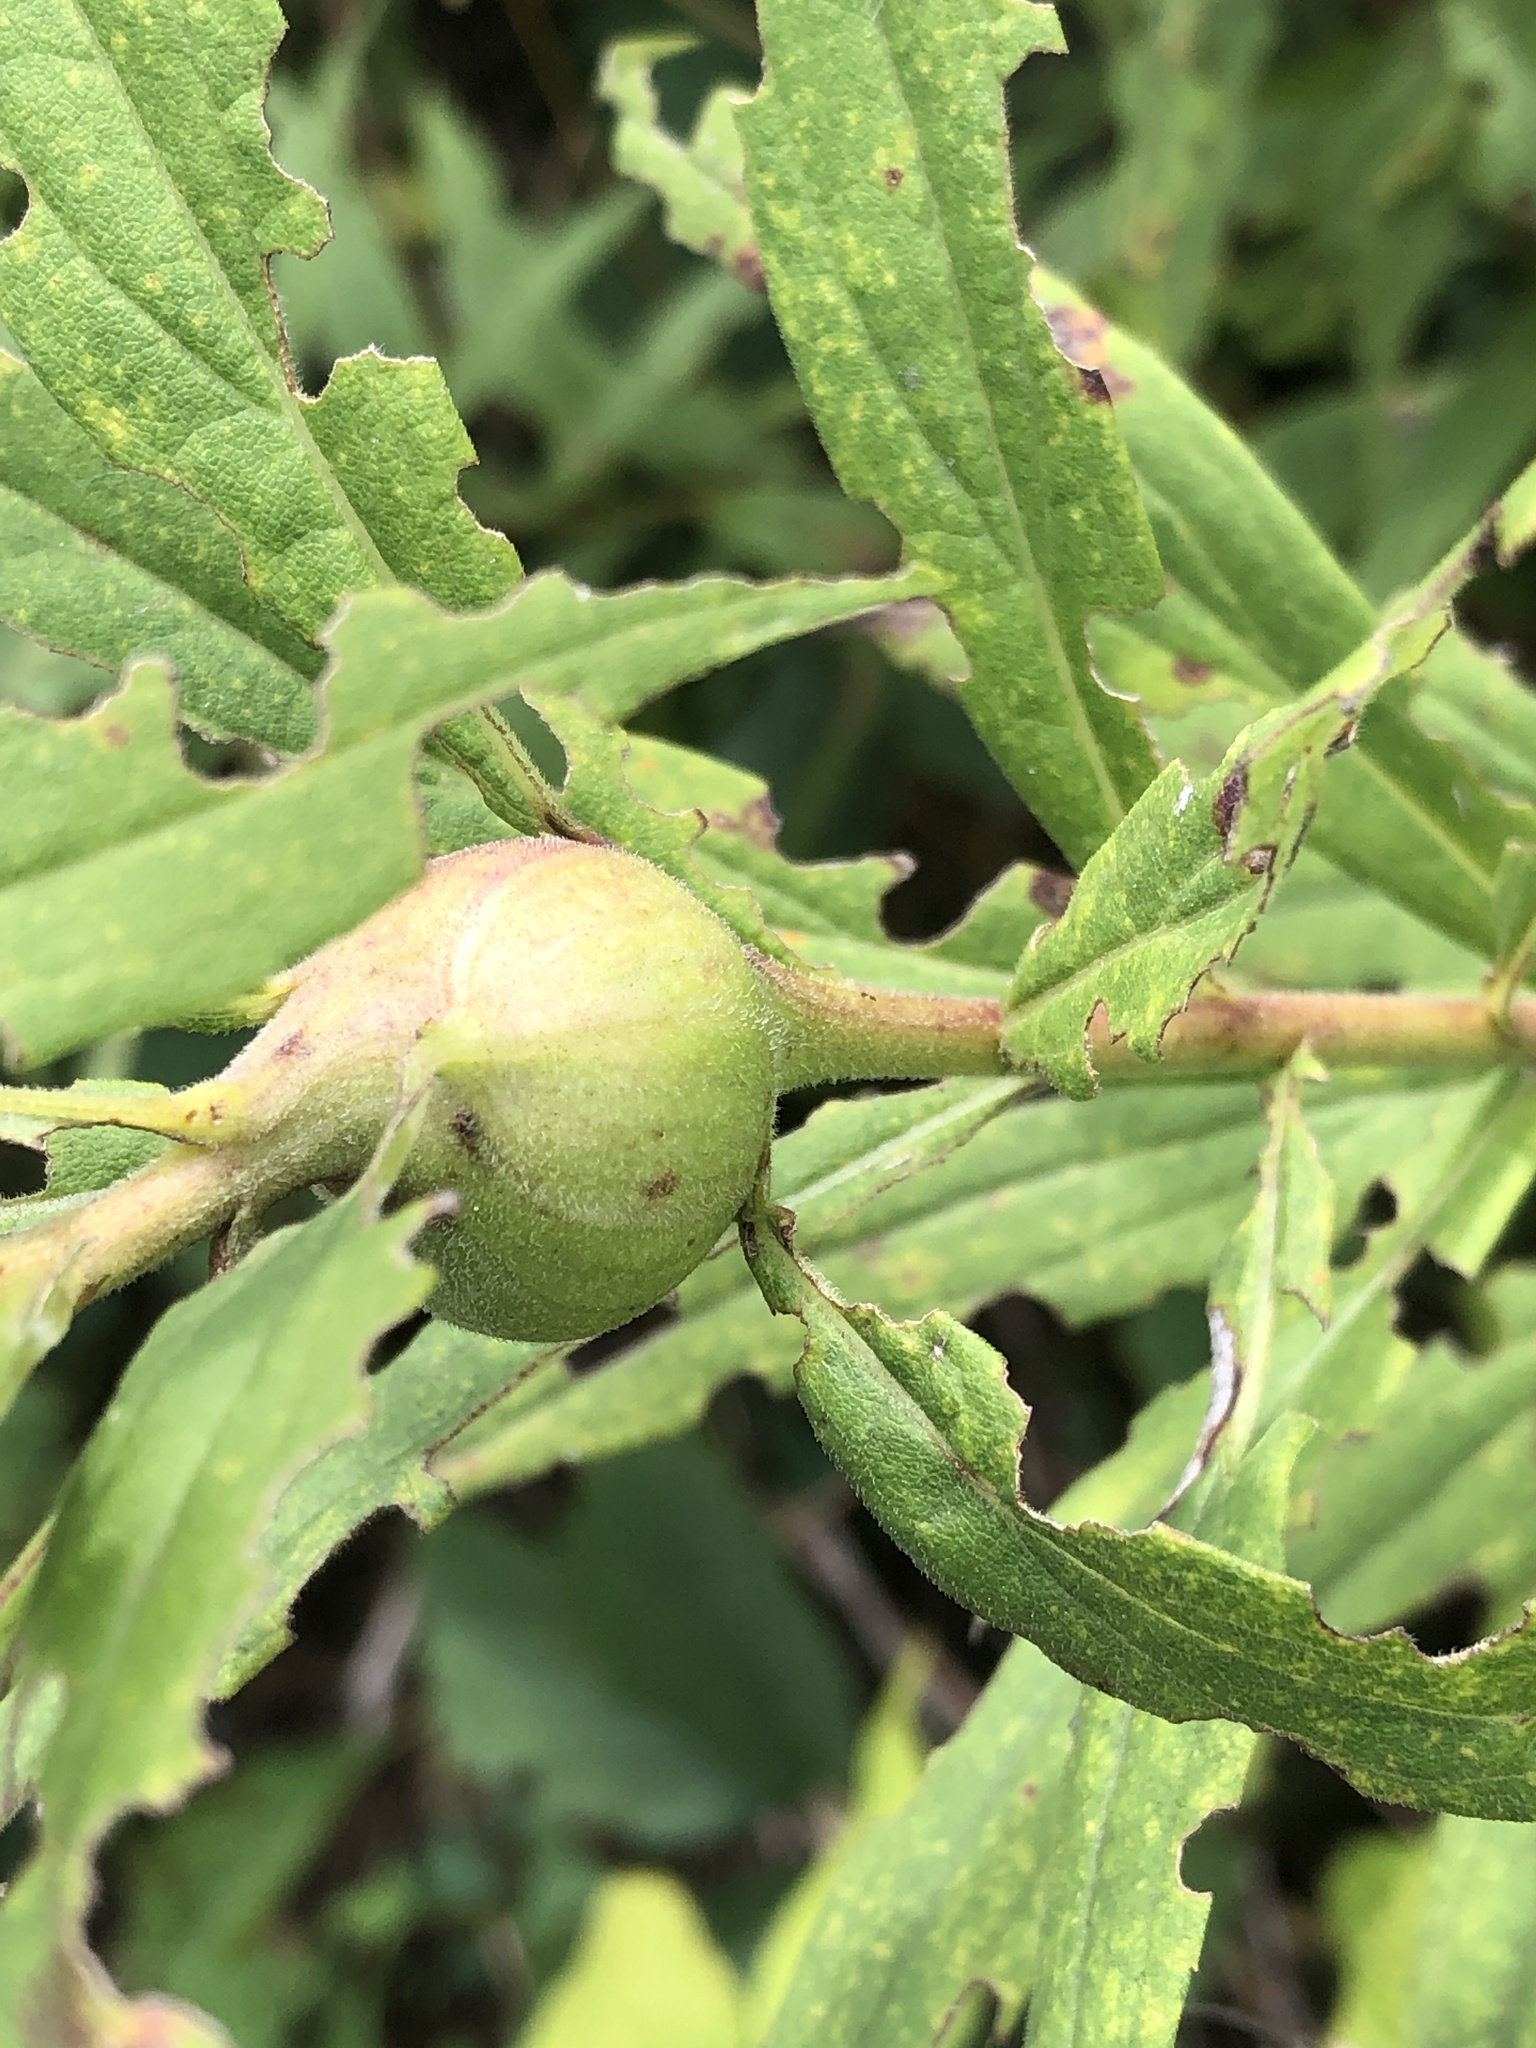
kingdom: Animalia
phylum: Arthropoda
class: Insecta
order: Diptera
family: Tephritidae
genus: Eurosta
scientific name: Eurosta solidaginis
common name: Goldenrod gall fly
